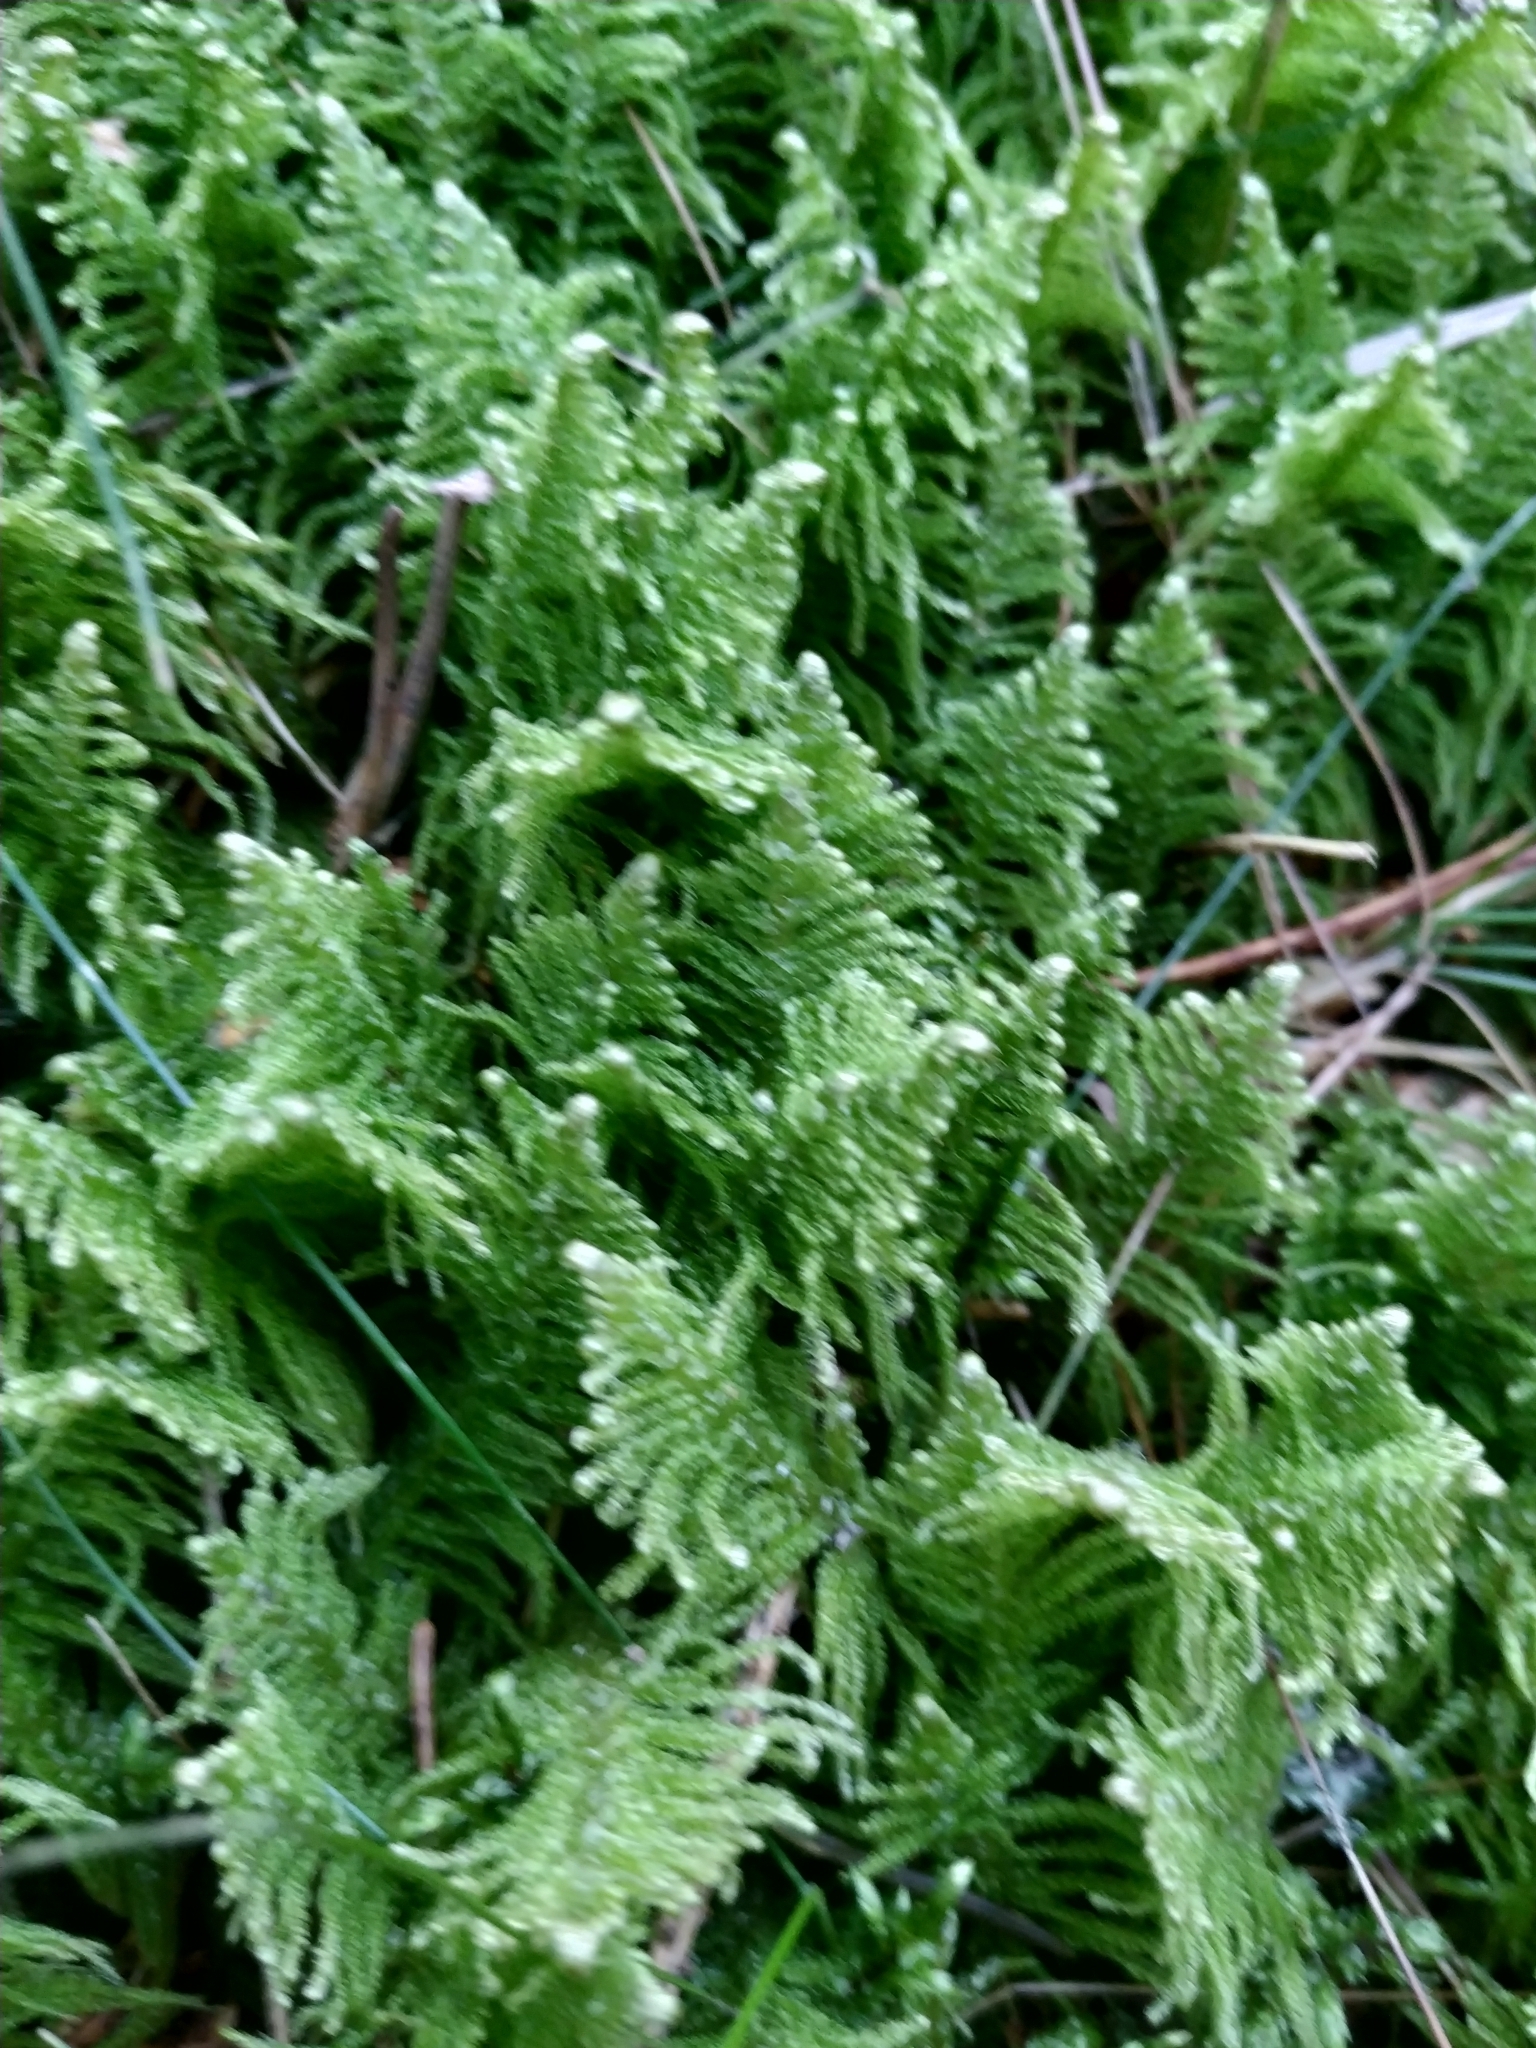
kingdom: Plantae
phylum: Bryophyta
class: Bryopsida
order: Hypnales
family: Pylaisiaceae
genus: Ptilium
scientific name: Ptilium crista-castrensis
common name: Knight's plume moss
